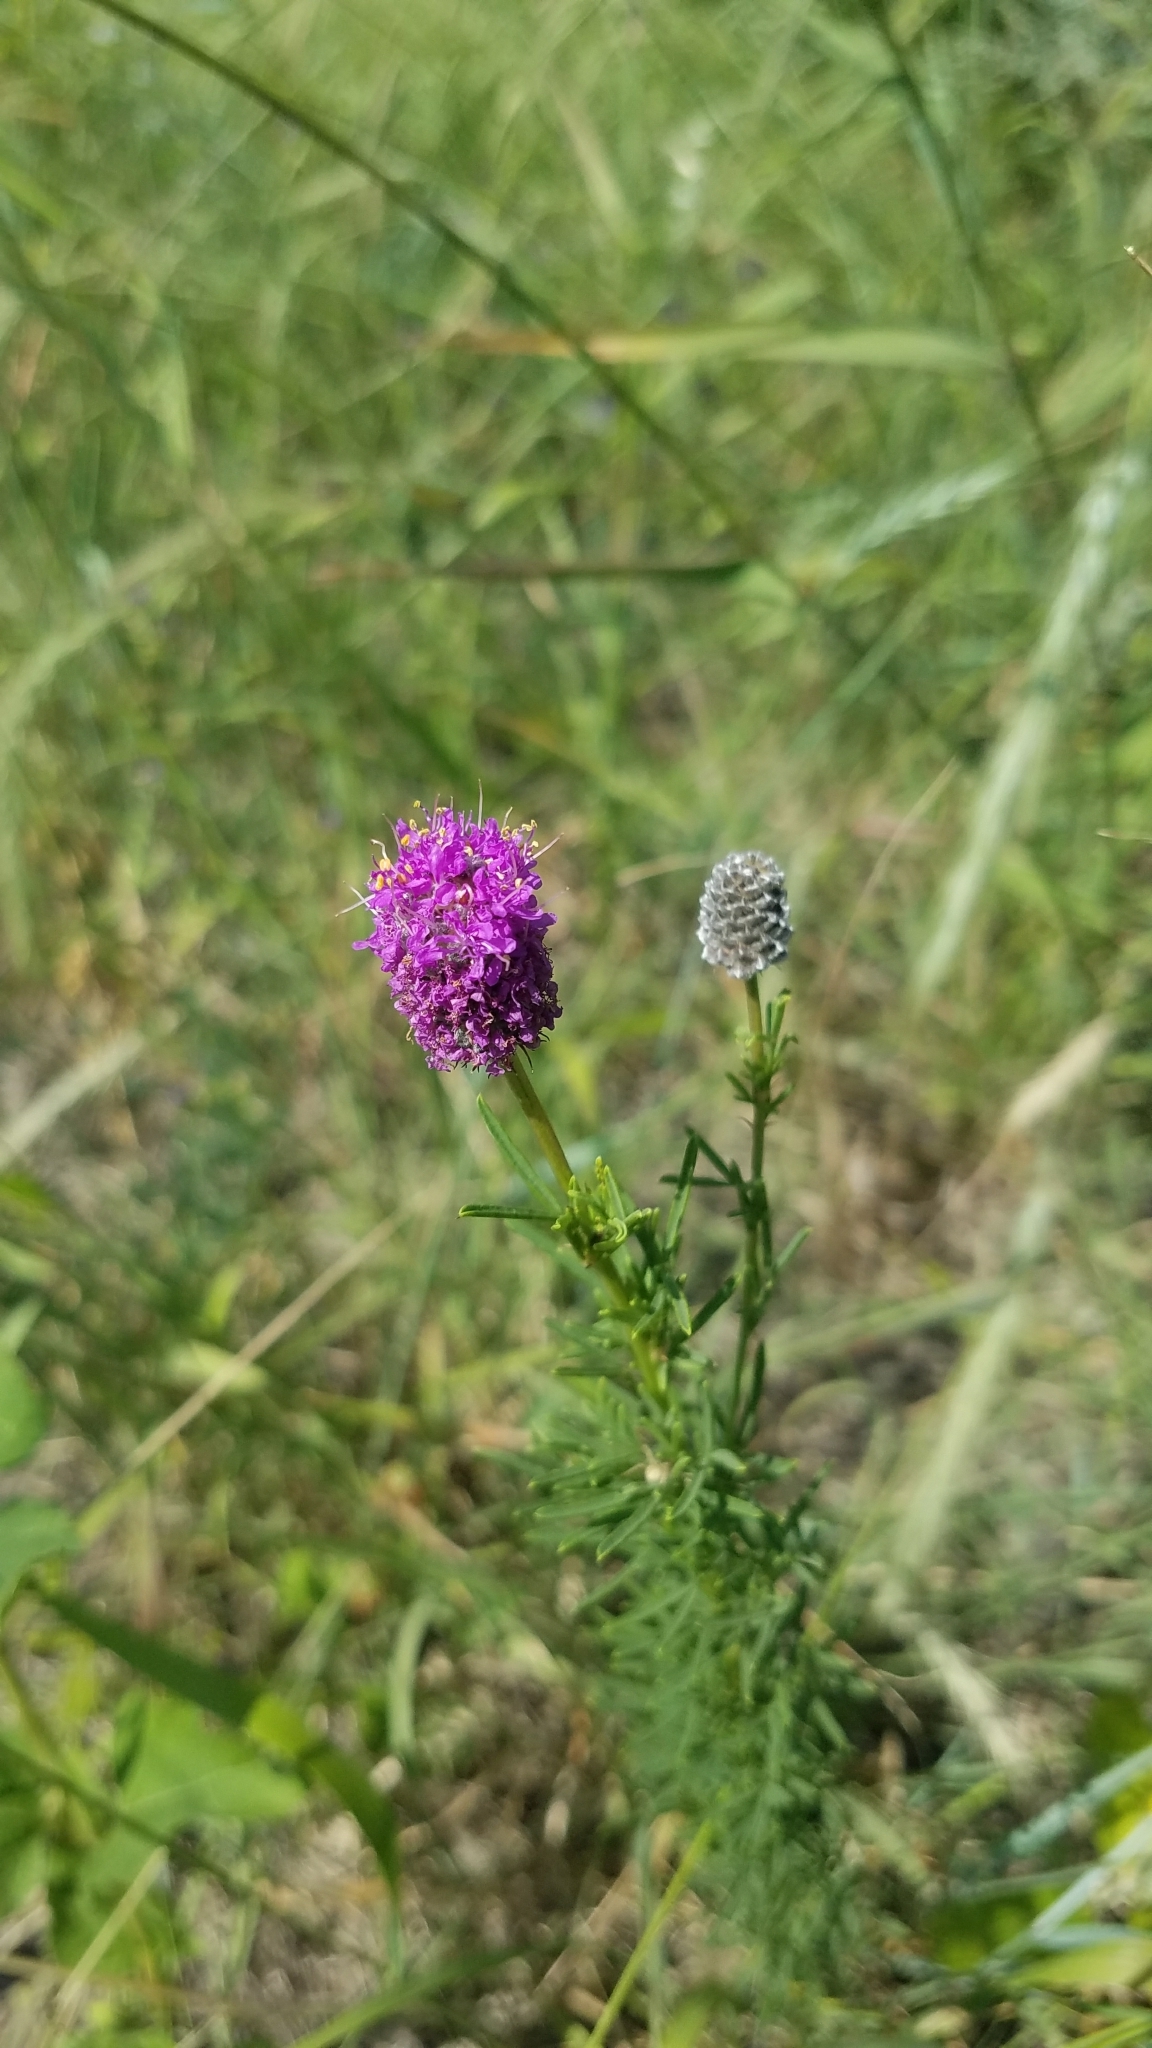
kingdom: Plantae
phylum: Tracheophyta
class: Magnoliopsida
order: Fabales
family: Fabaceae
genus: Dalea
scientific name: Dalea purpurea
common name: Purple prairie-clover
